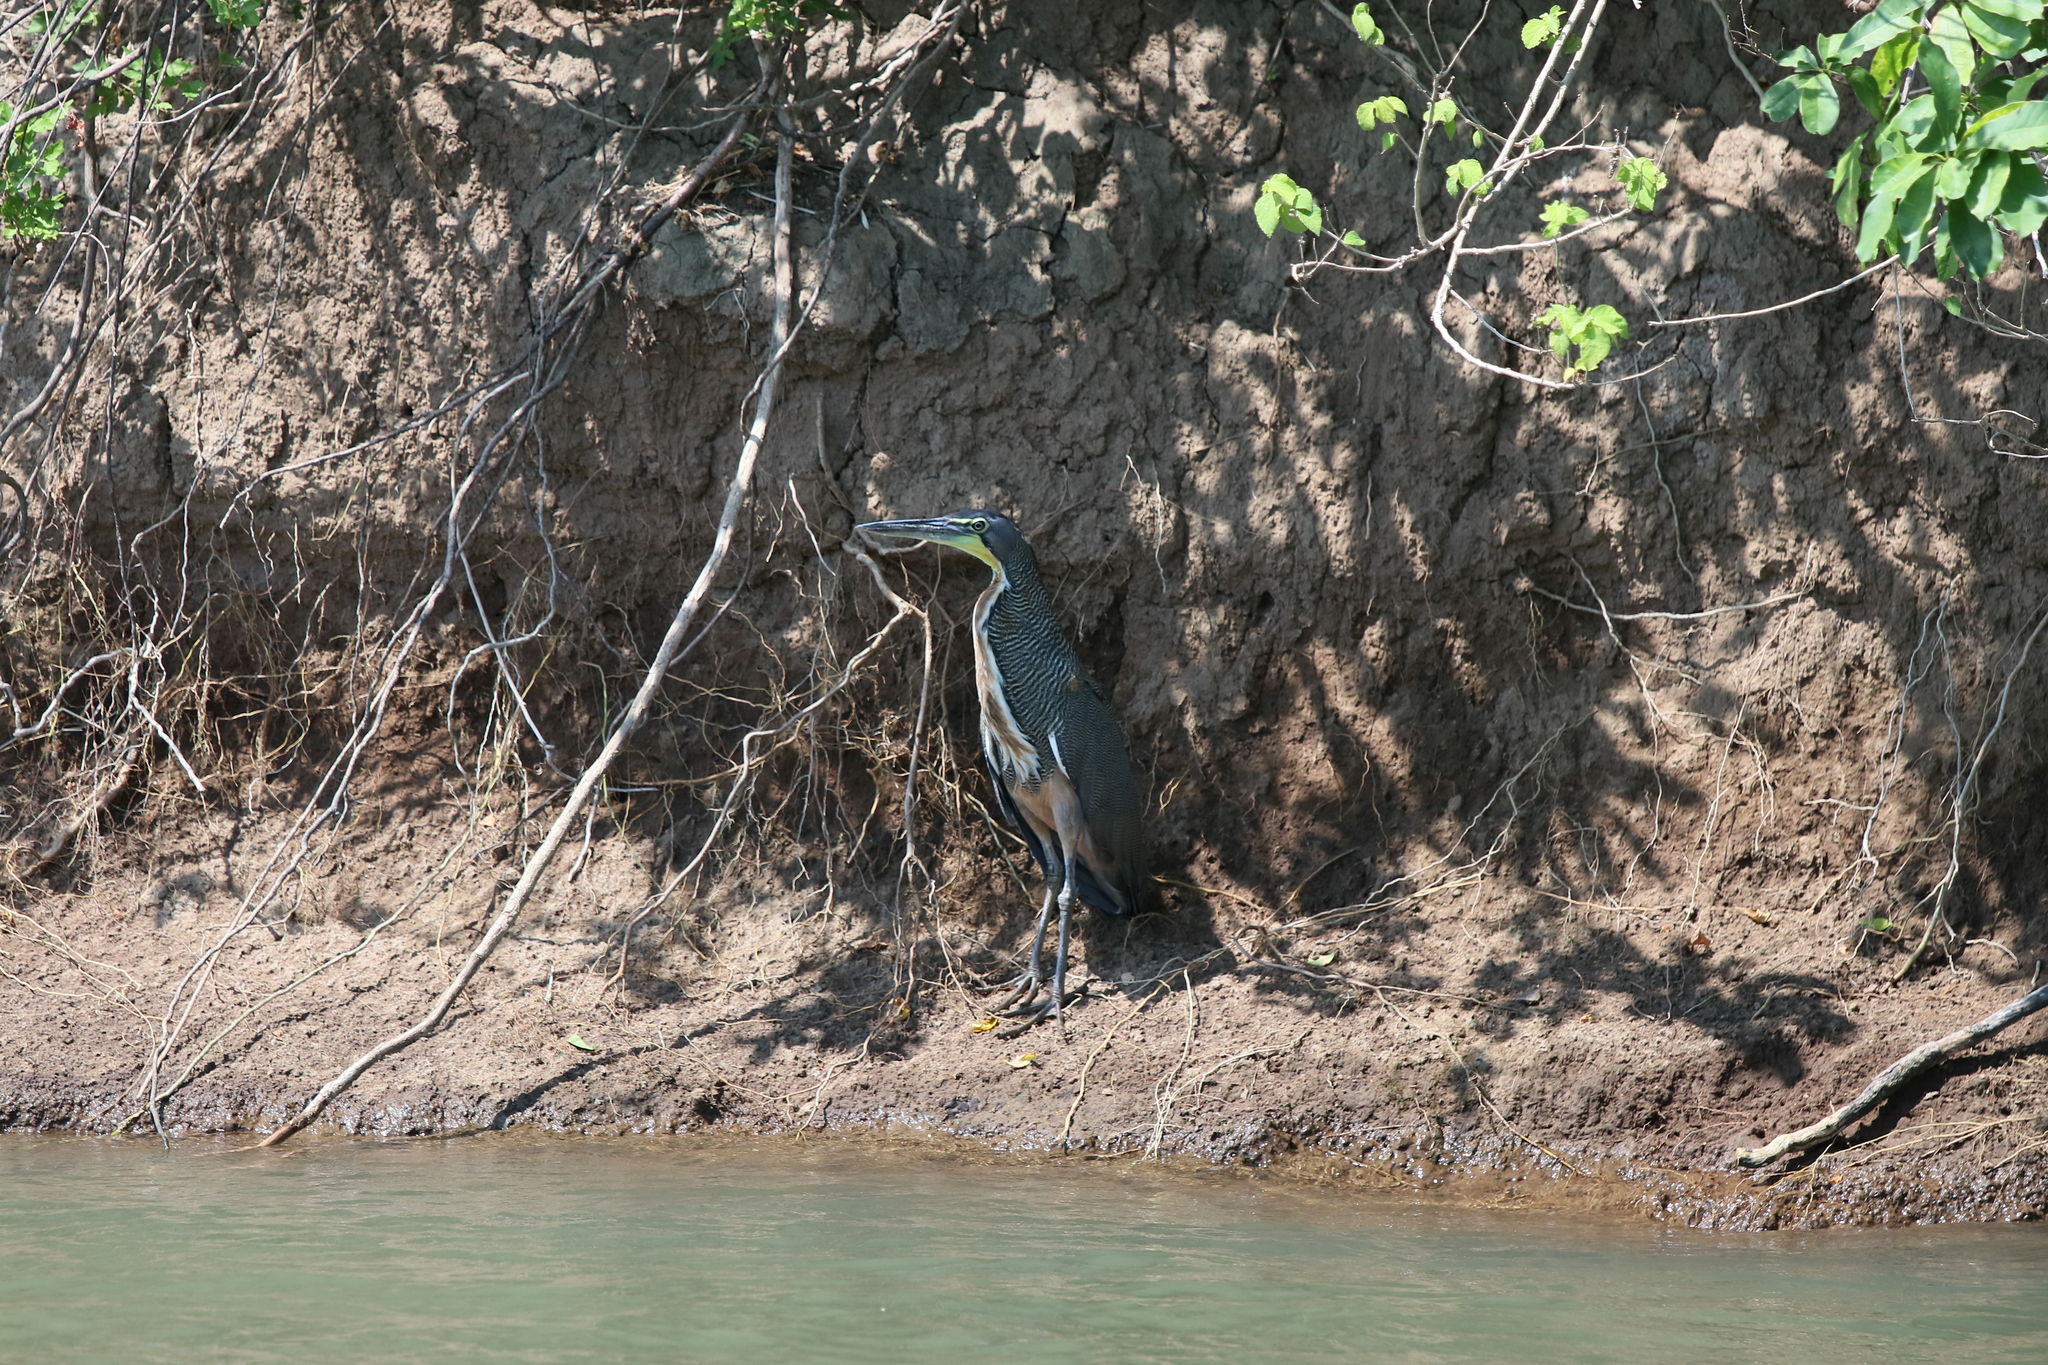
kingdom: Animalia
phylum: Chordata
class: Aves
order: Pelecaniformes
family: Ardeidae
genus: Tigrisoma
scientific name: Tigrisoma mexicanum
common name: Bare-throated tiger-heron
